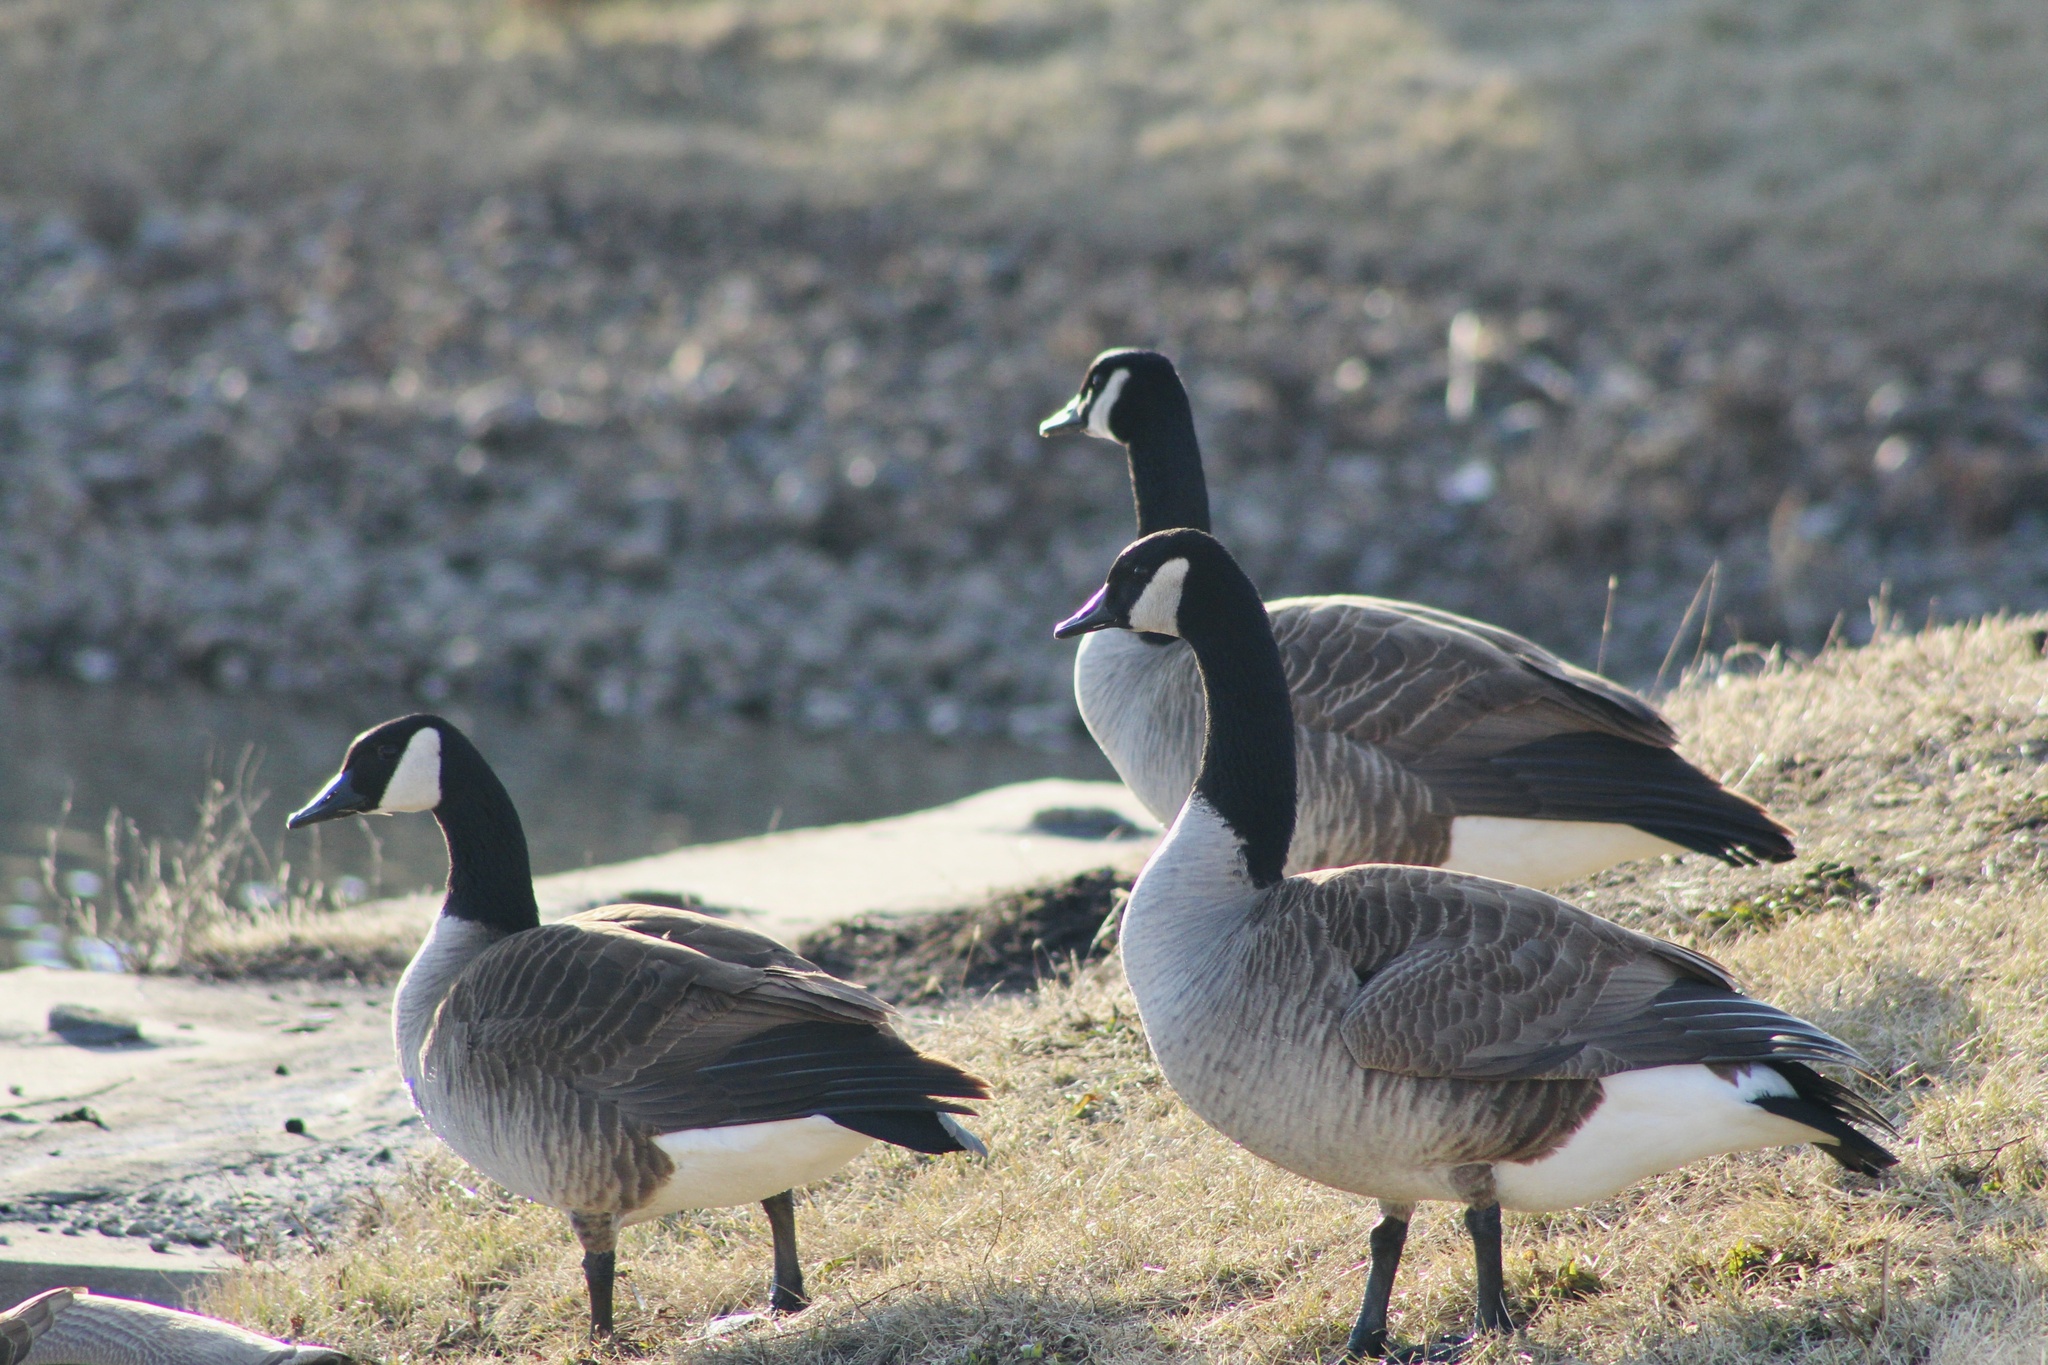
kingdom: Animalia
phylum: Chordata
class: Aves
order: Anseriformes
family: Anatidae
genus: Branta
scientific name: Branta canadensis
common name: Canada goose
